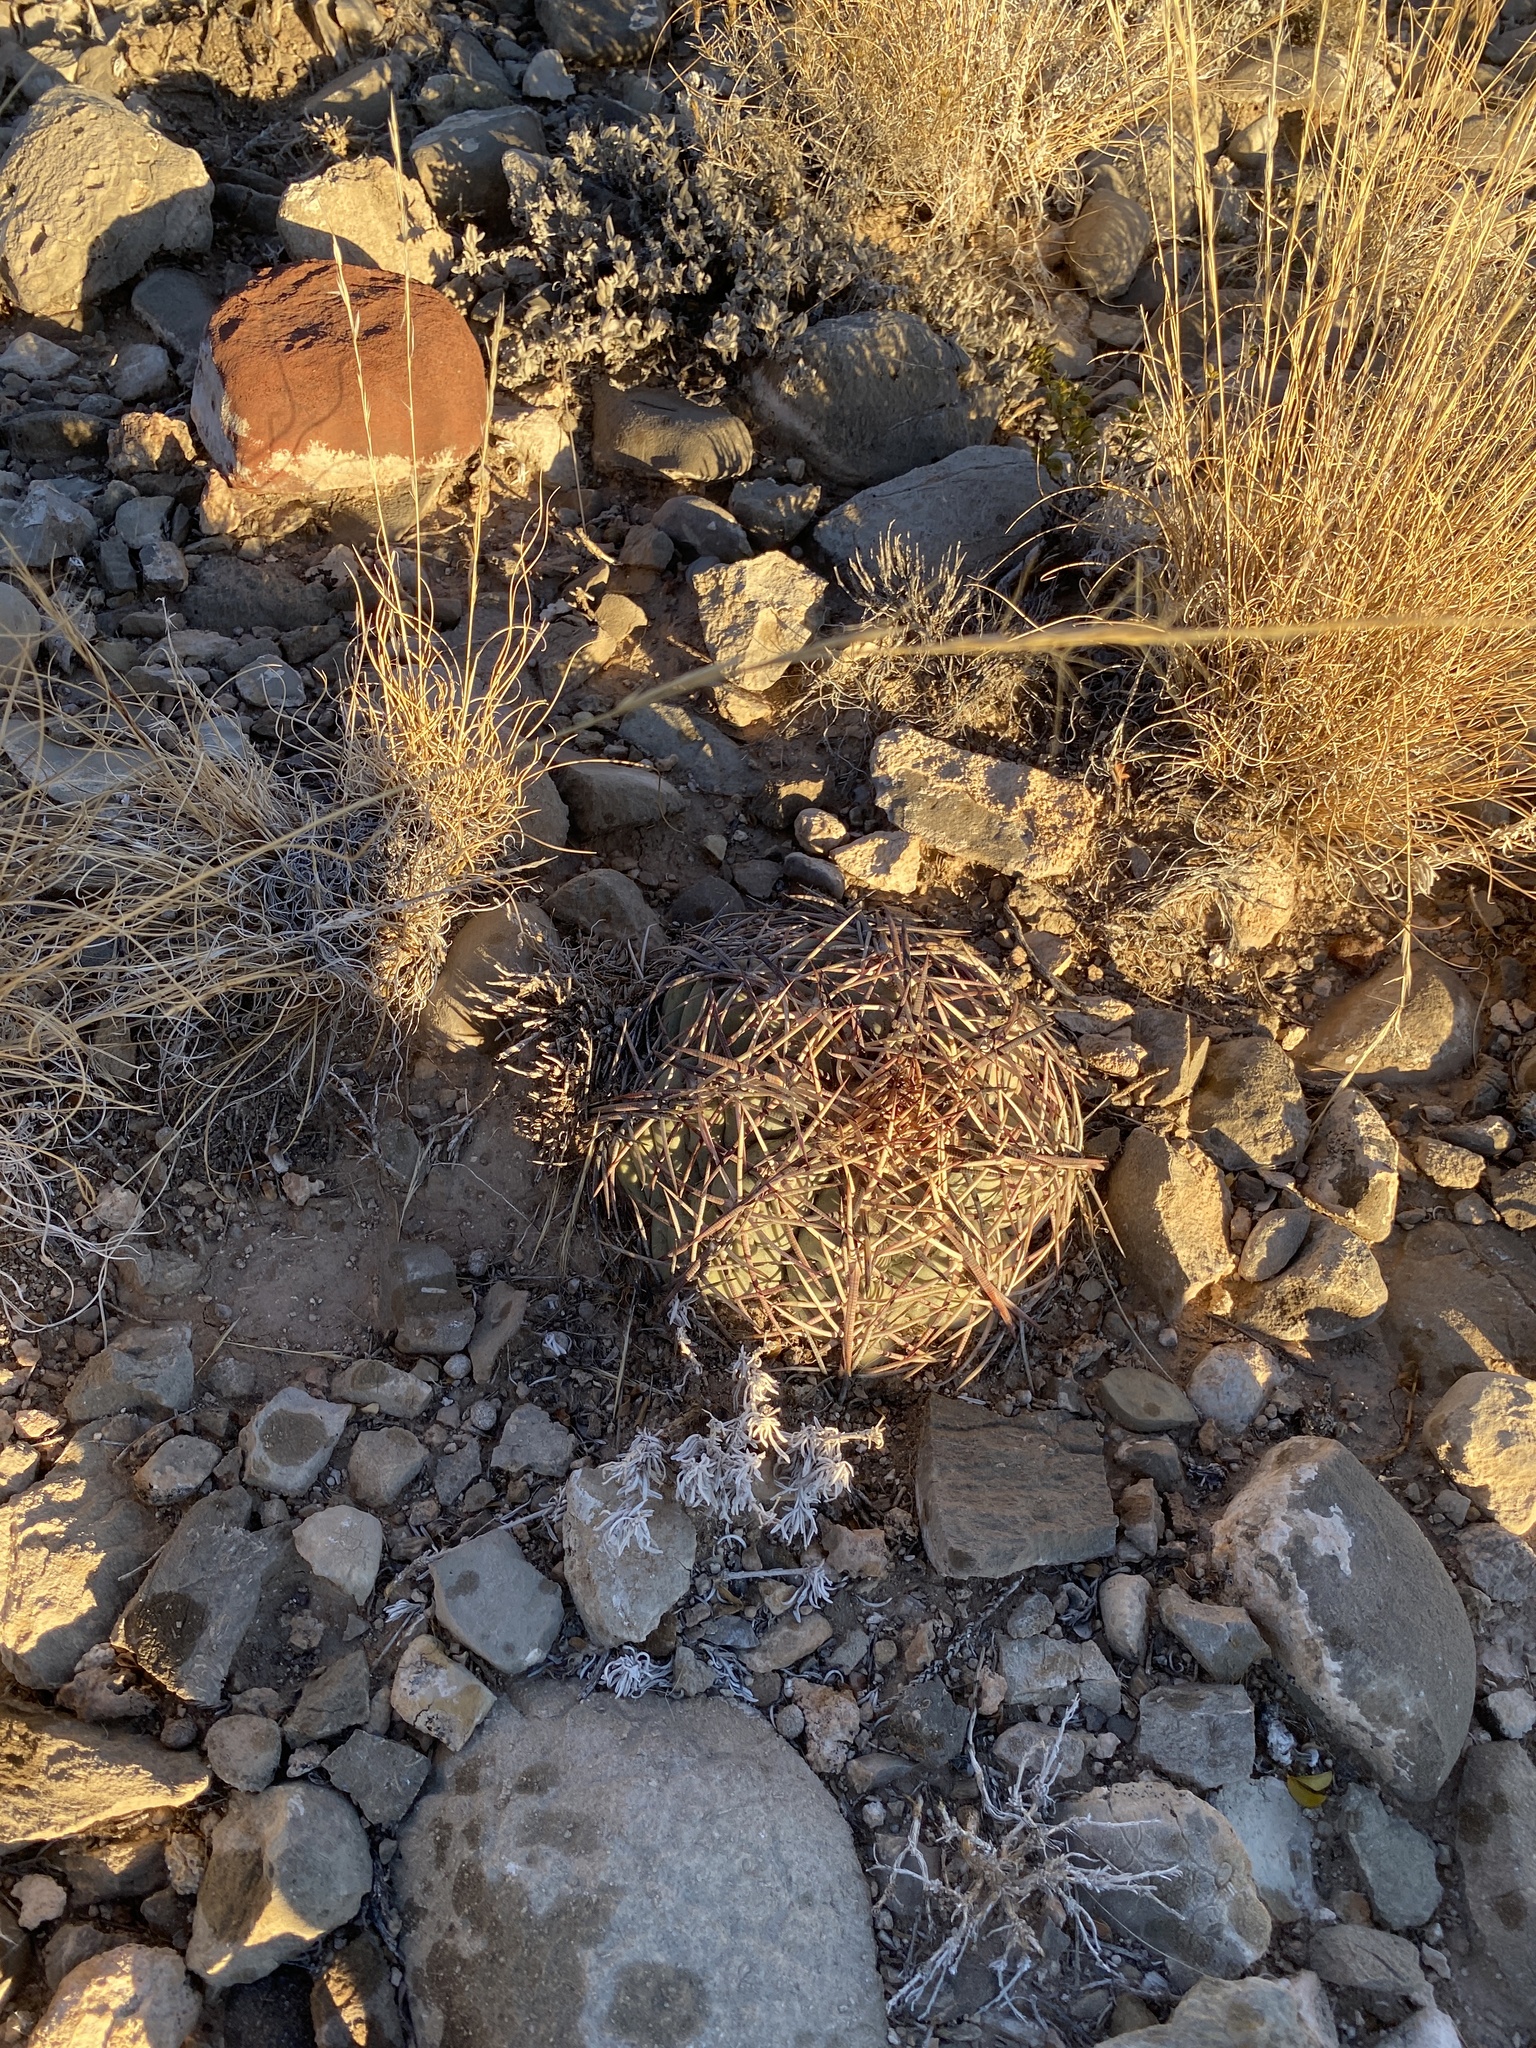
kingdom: Plantae
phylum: Tracheophyta
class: Magnoliopsida
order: Caryophyllales
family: Cactaceae
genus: Echinocactus
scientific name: Echinocactus horizonthalonius
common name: Devilshead
